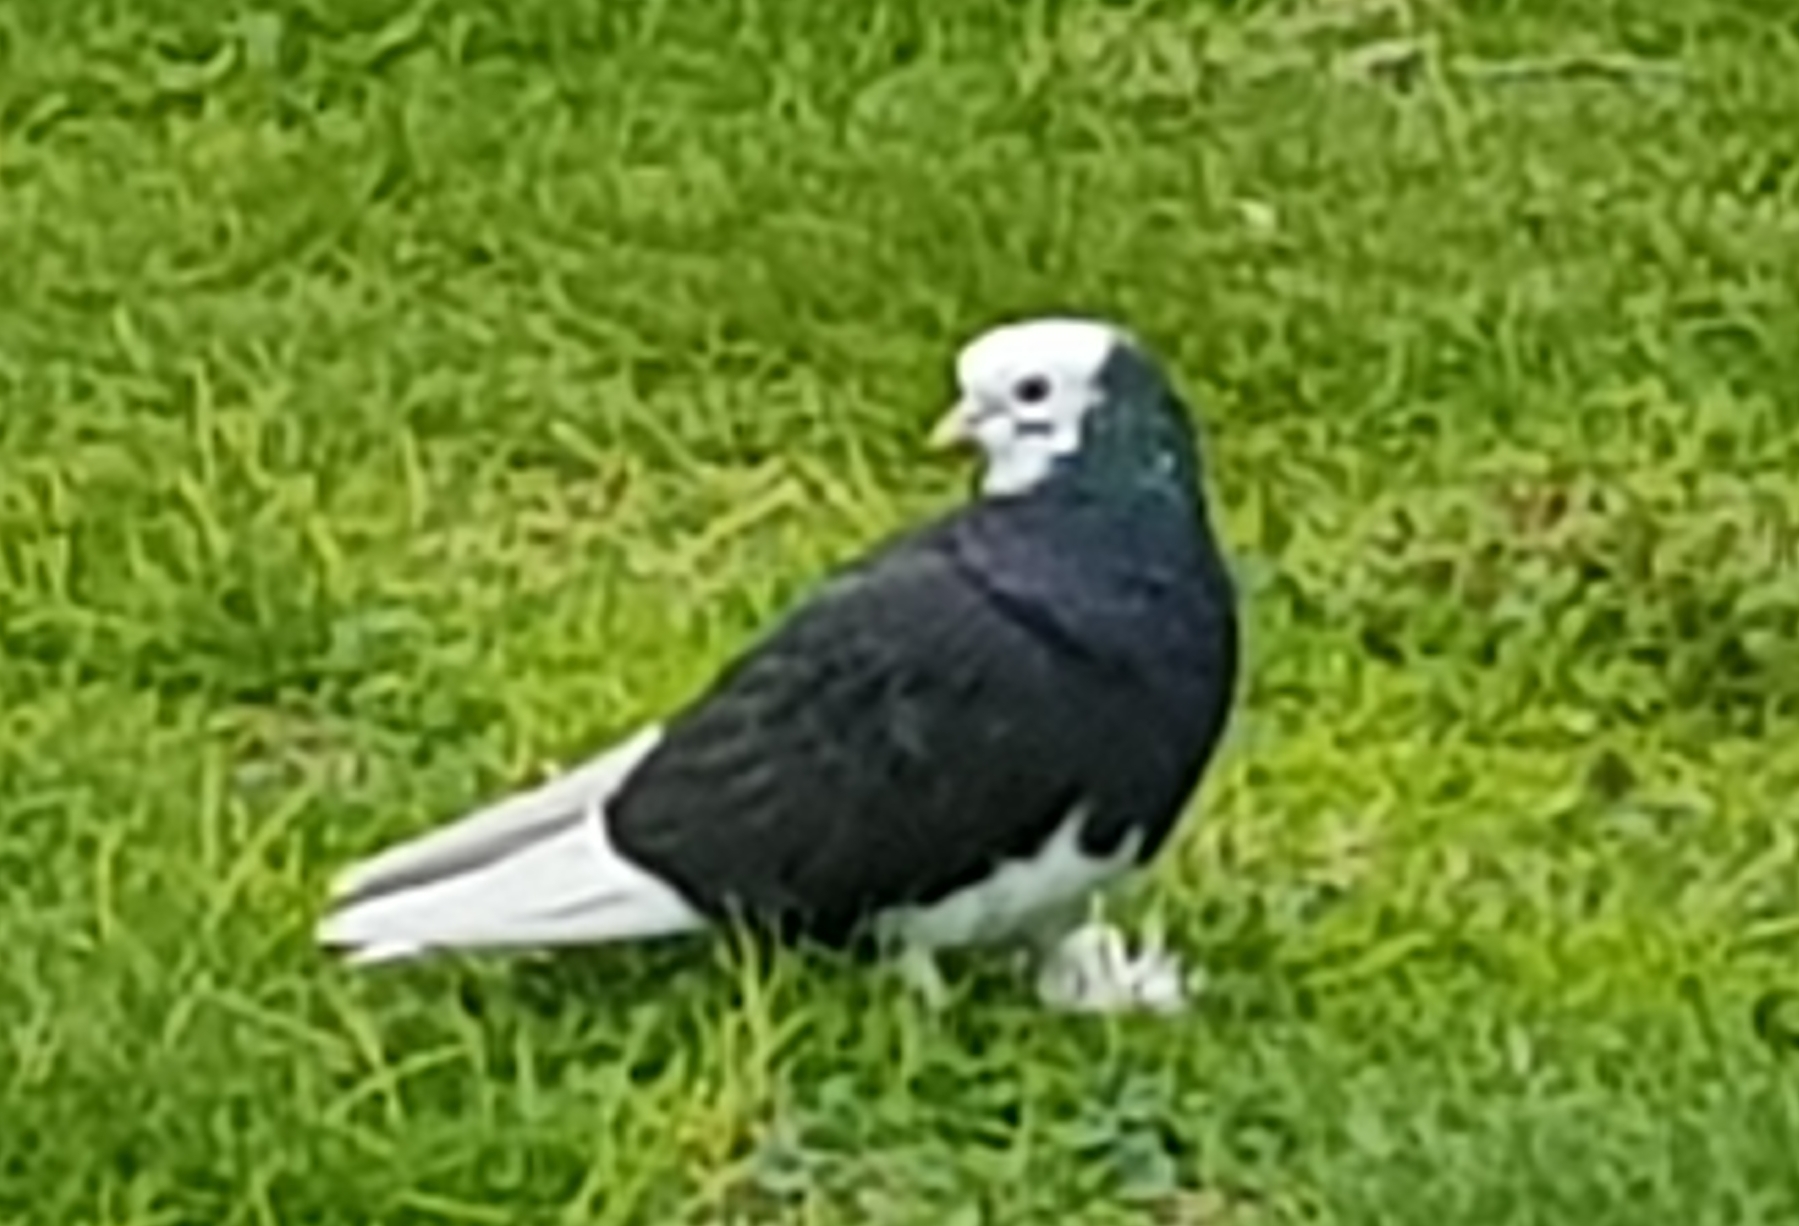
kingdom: Animalia
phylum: Chordata
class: Aves
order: Columbiformes
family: Columbidae
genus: Columba
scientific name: Columba livia
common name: Rock pigeon
